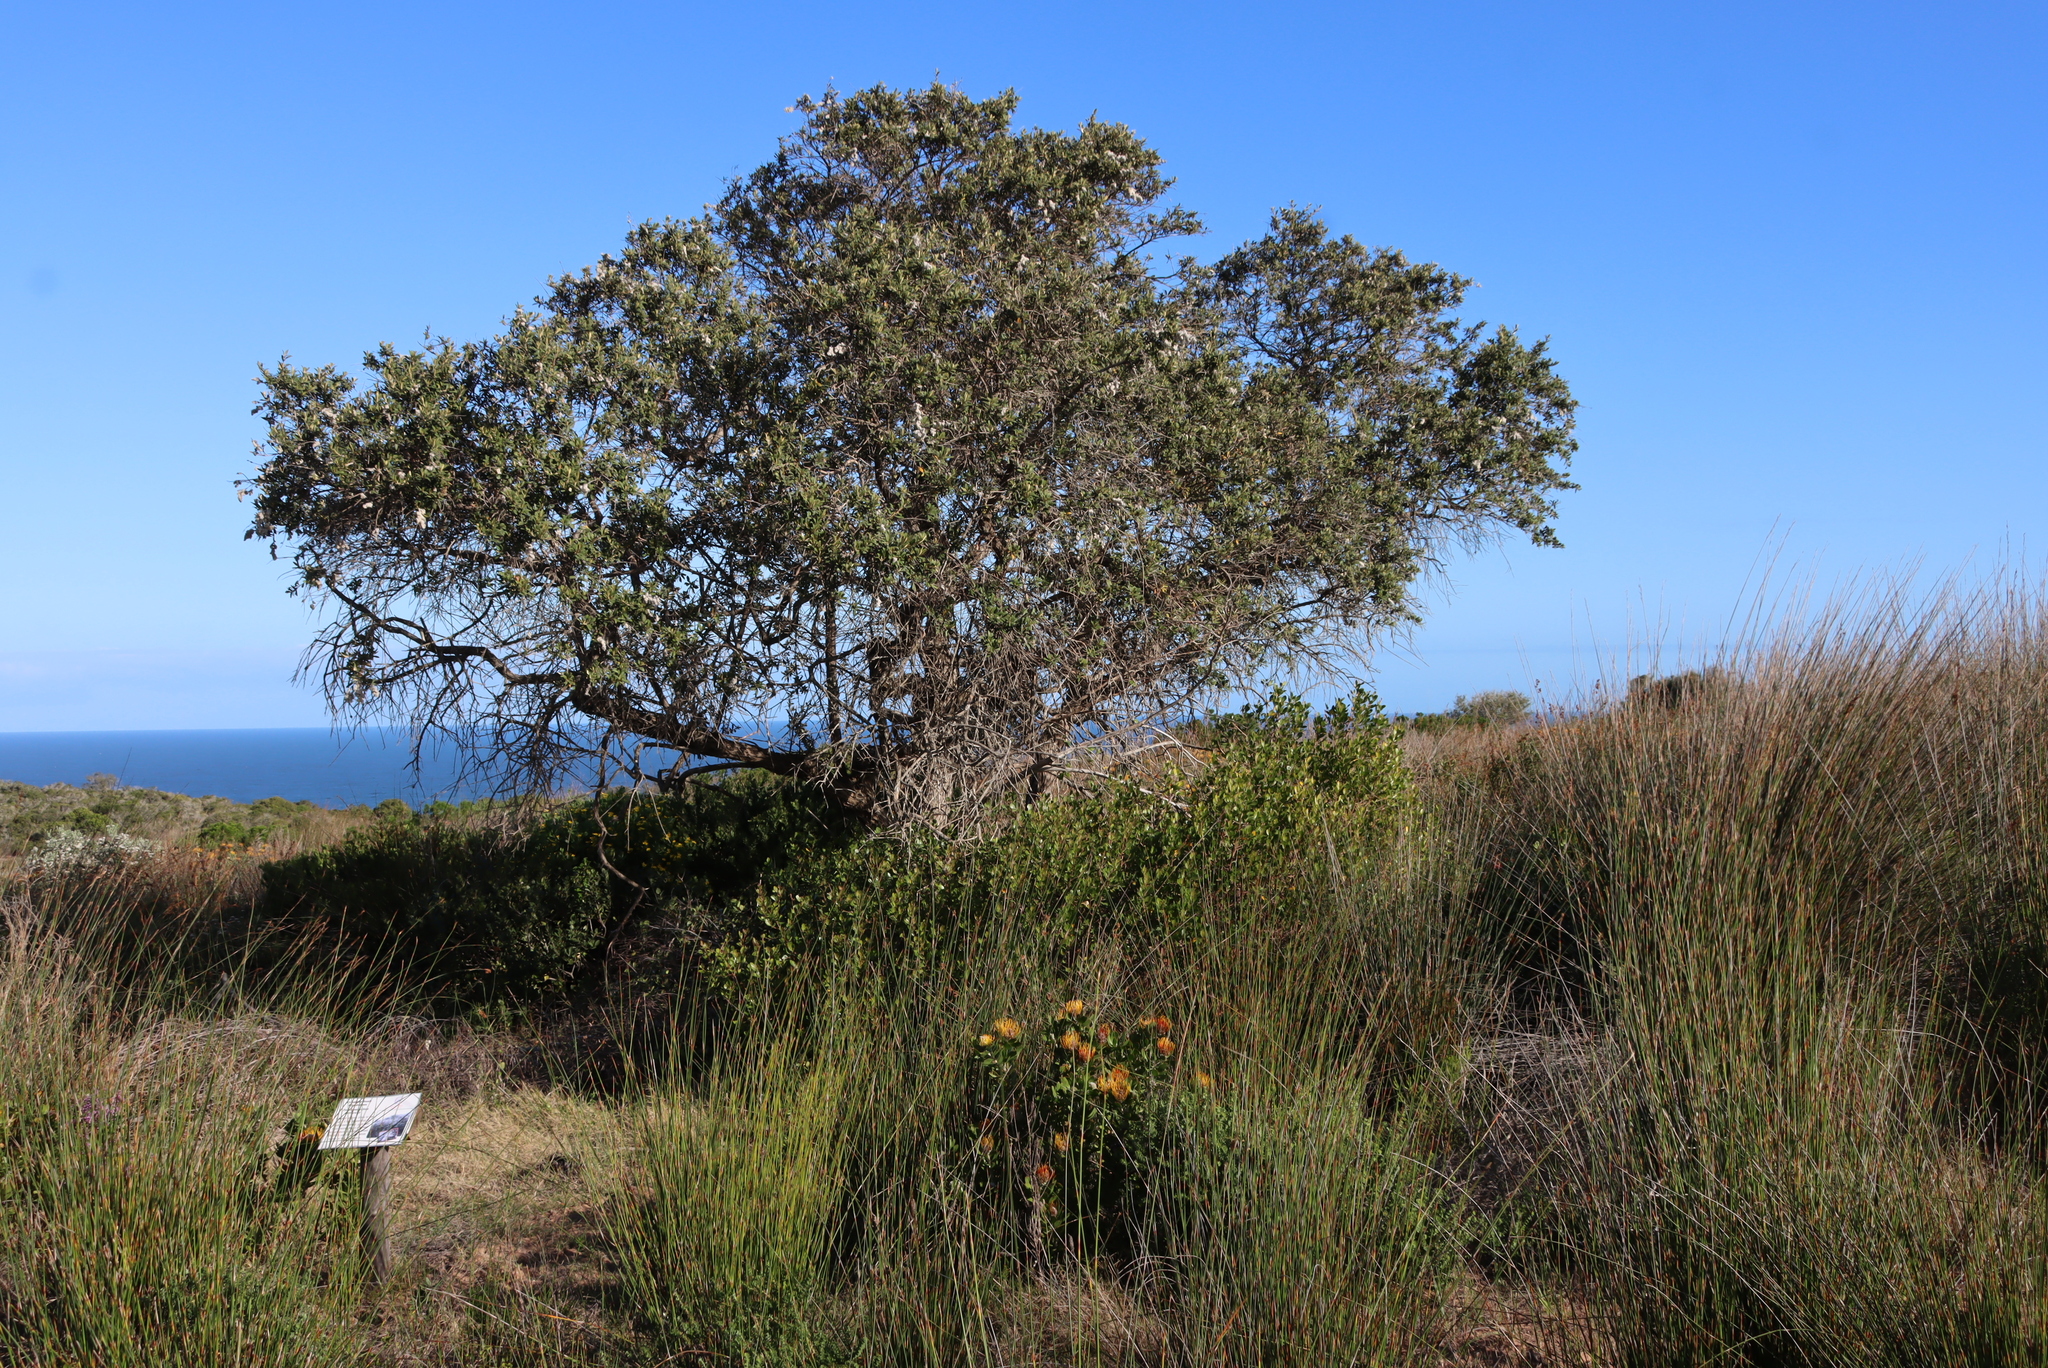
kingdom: Plantae
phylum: Tracheophyta
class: Magnoliopsida
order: Asterales
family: Asteraceae
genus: Tarchonanthus
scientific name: Tarchonanthus littoralis
